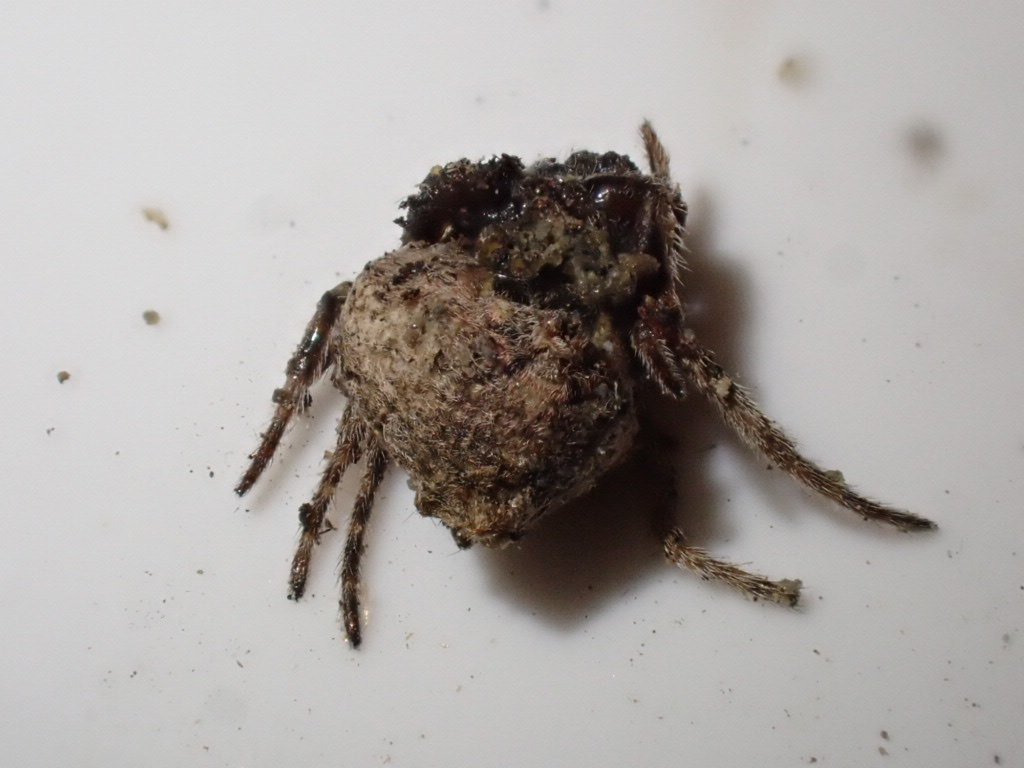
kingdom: Animalia
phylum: Arthropoda
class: Arachnida
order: Araneae
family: Araneidae
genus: Eriophora
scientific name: Eriophora pustulosa
